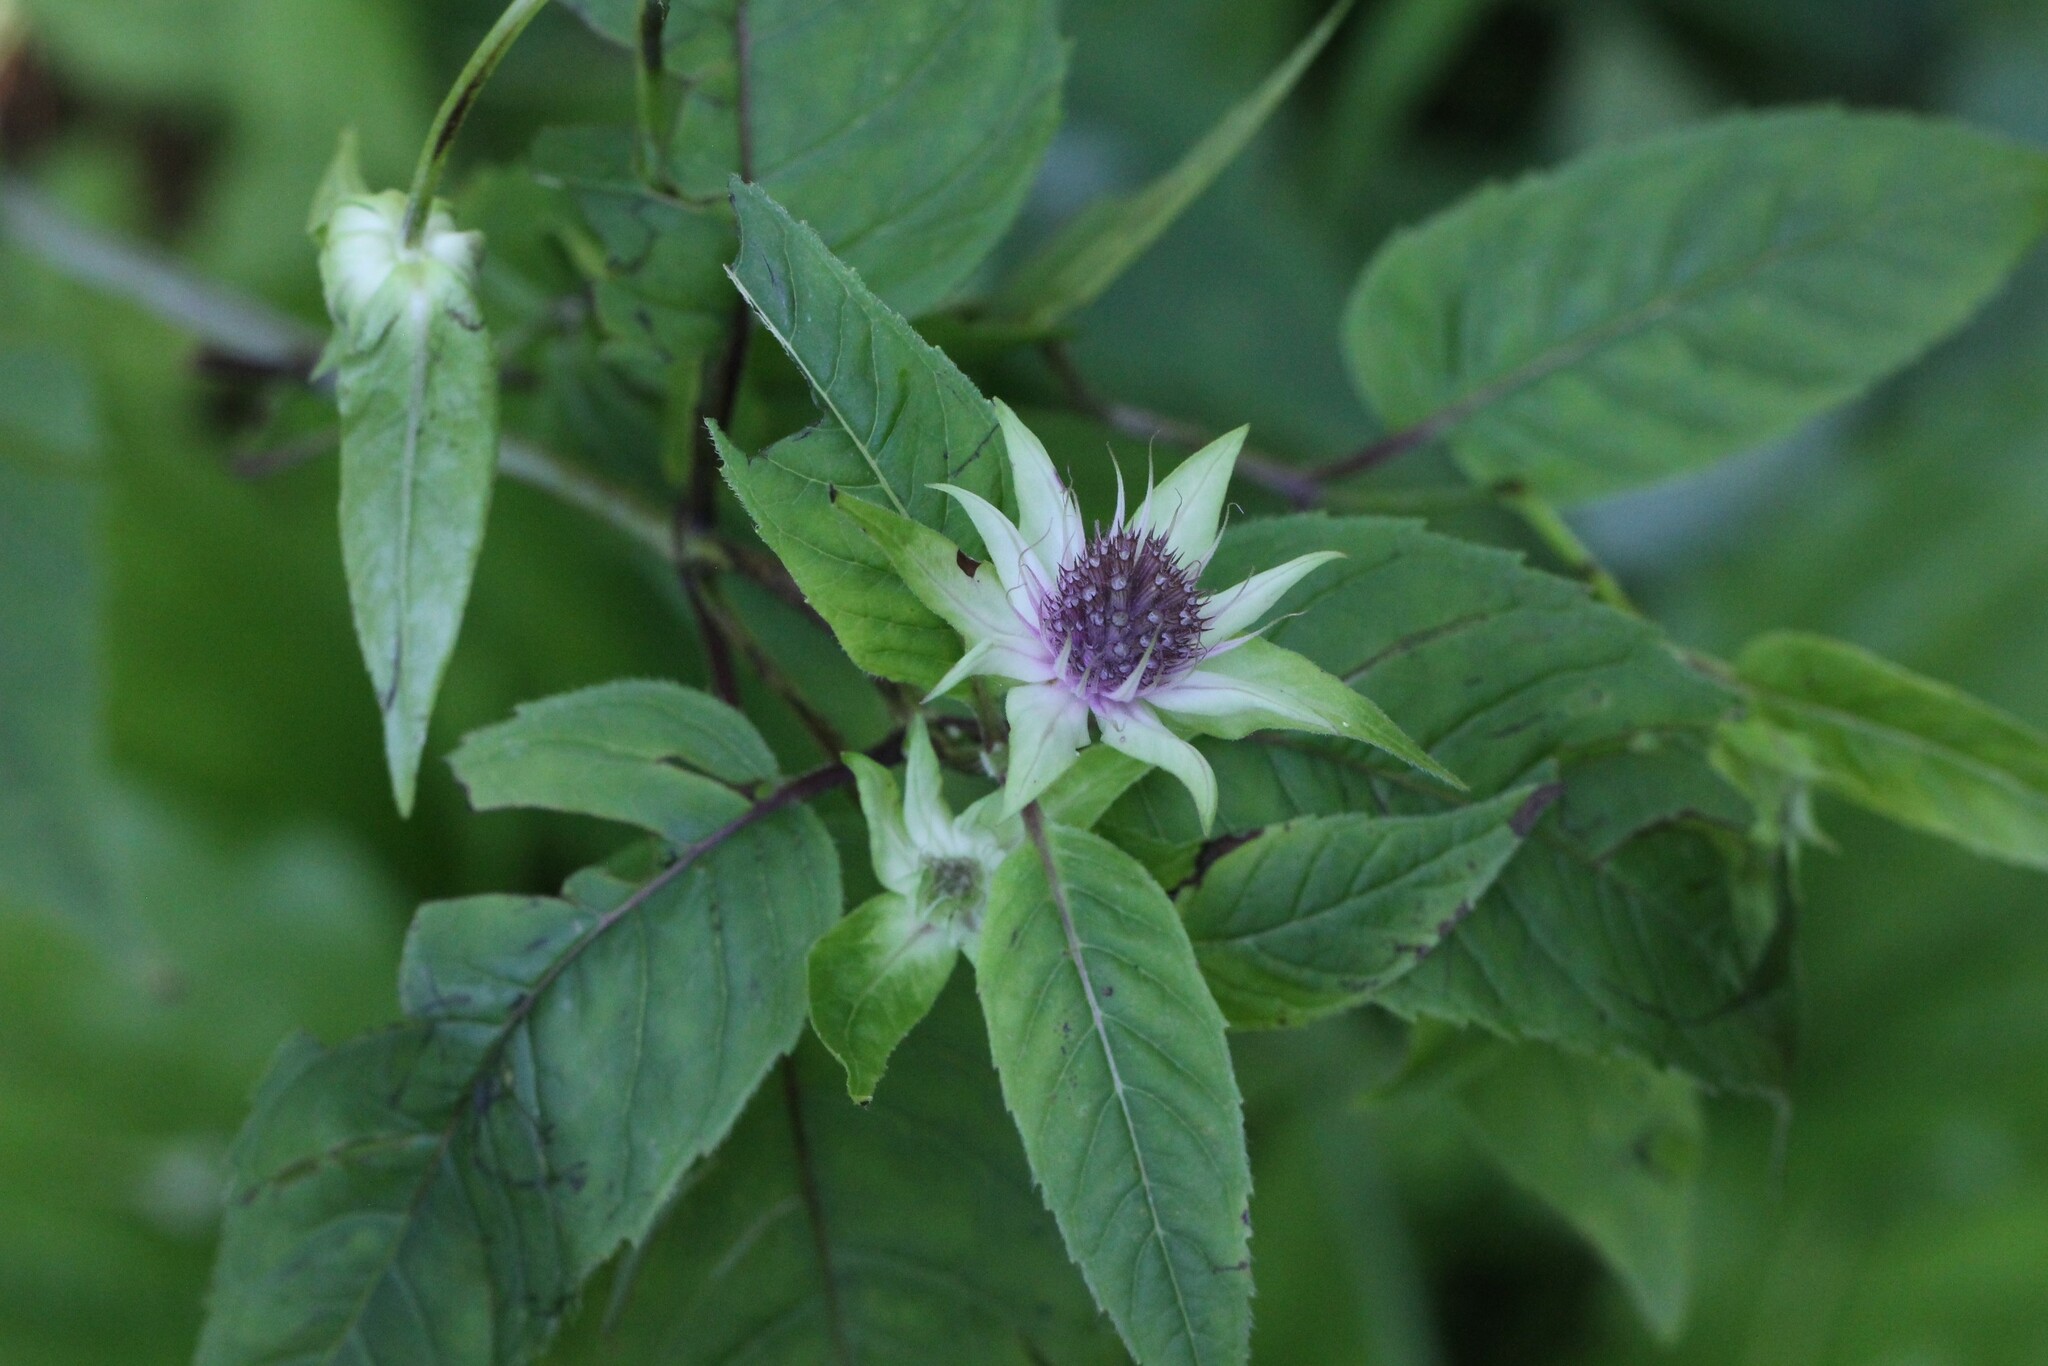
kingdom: Plantae
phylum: Tracheophyta
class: Magnoliopsida
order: Lamiales
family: Lamiaceae
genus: Monarda
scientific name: Monarda clinopodia
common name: Basil beebalm
